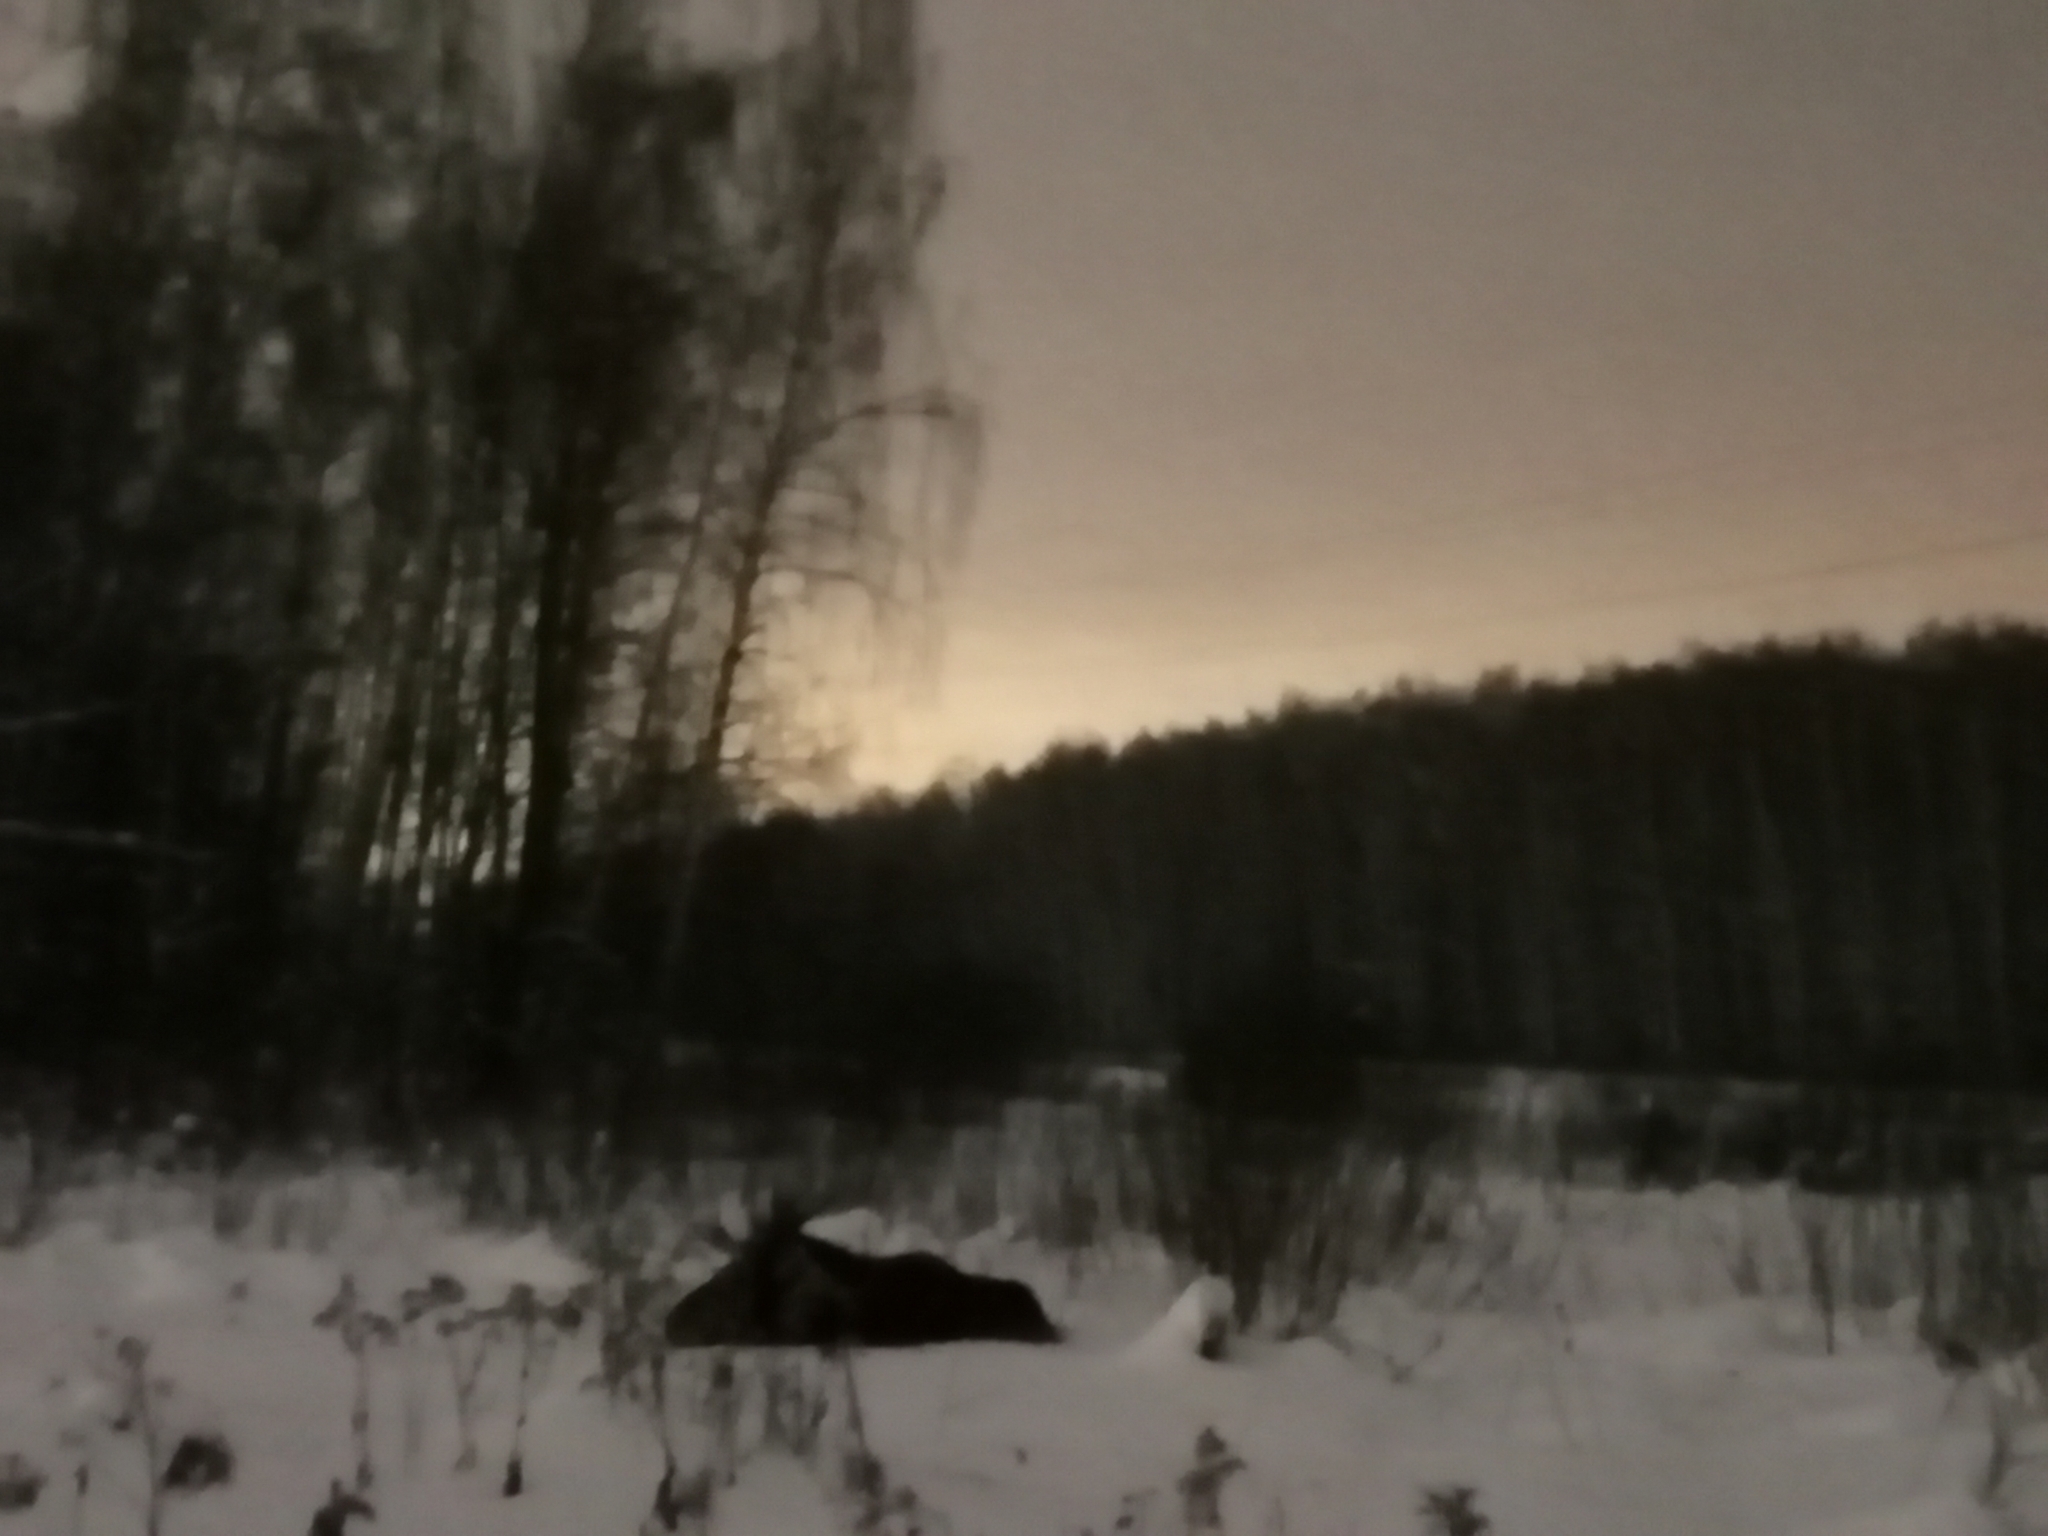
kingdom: Animalia
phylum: Chordata
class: Mammalia
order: Artiodactyla
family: Cervidae
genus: Alces
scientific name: Alces alces
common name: Moose
